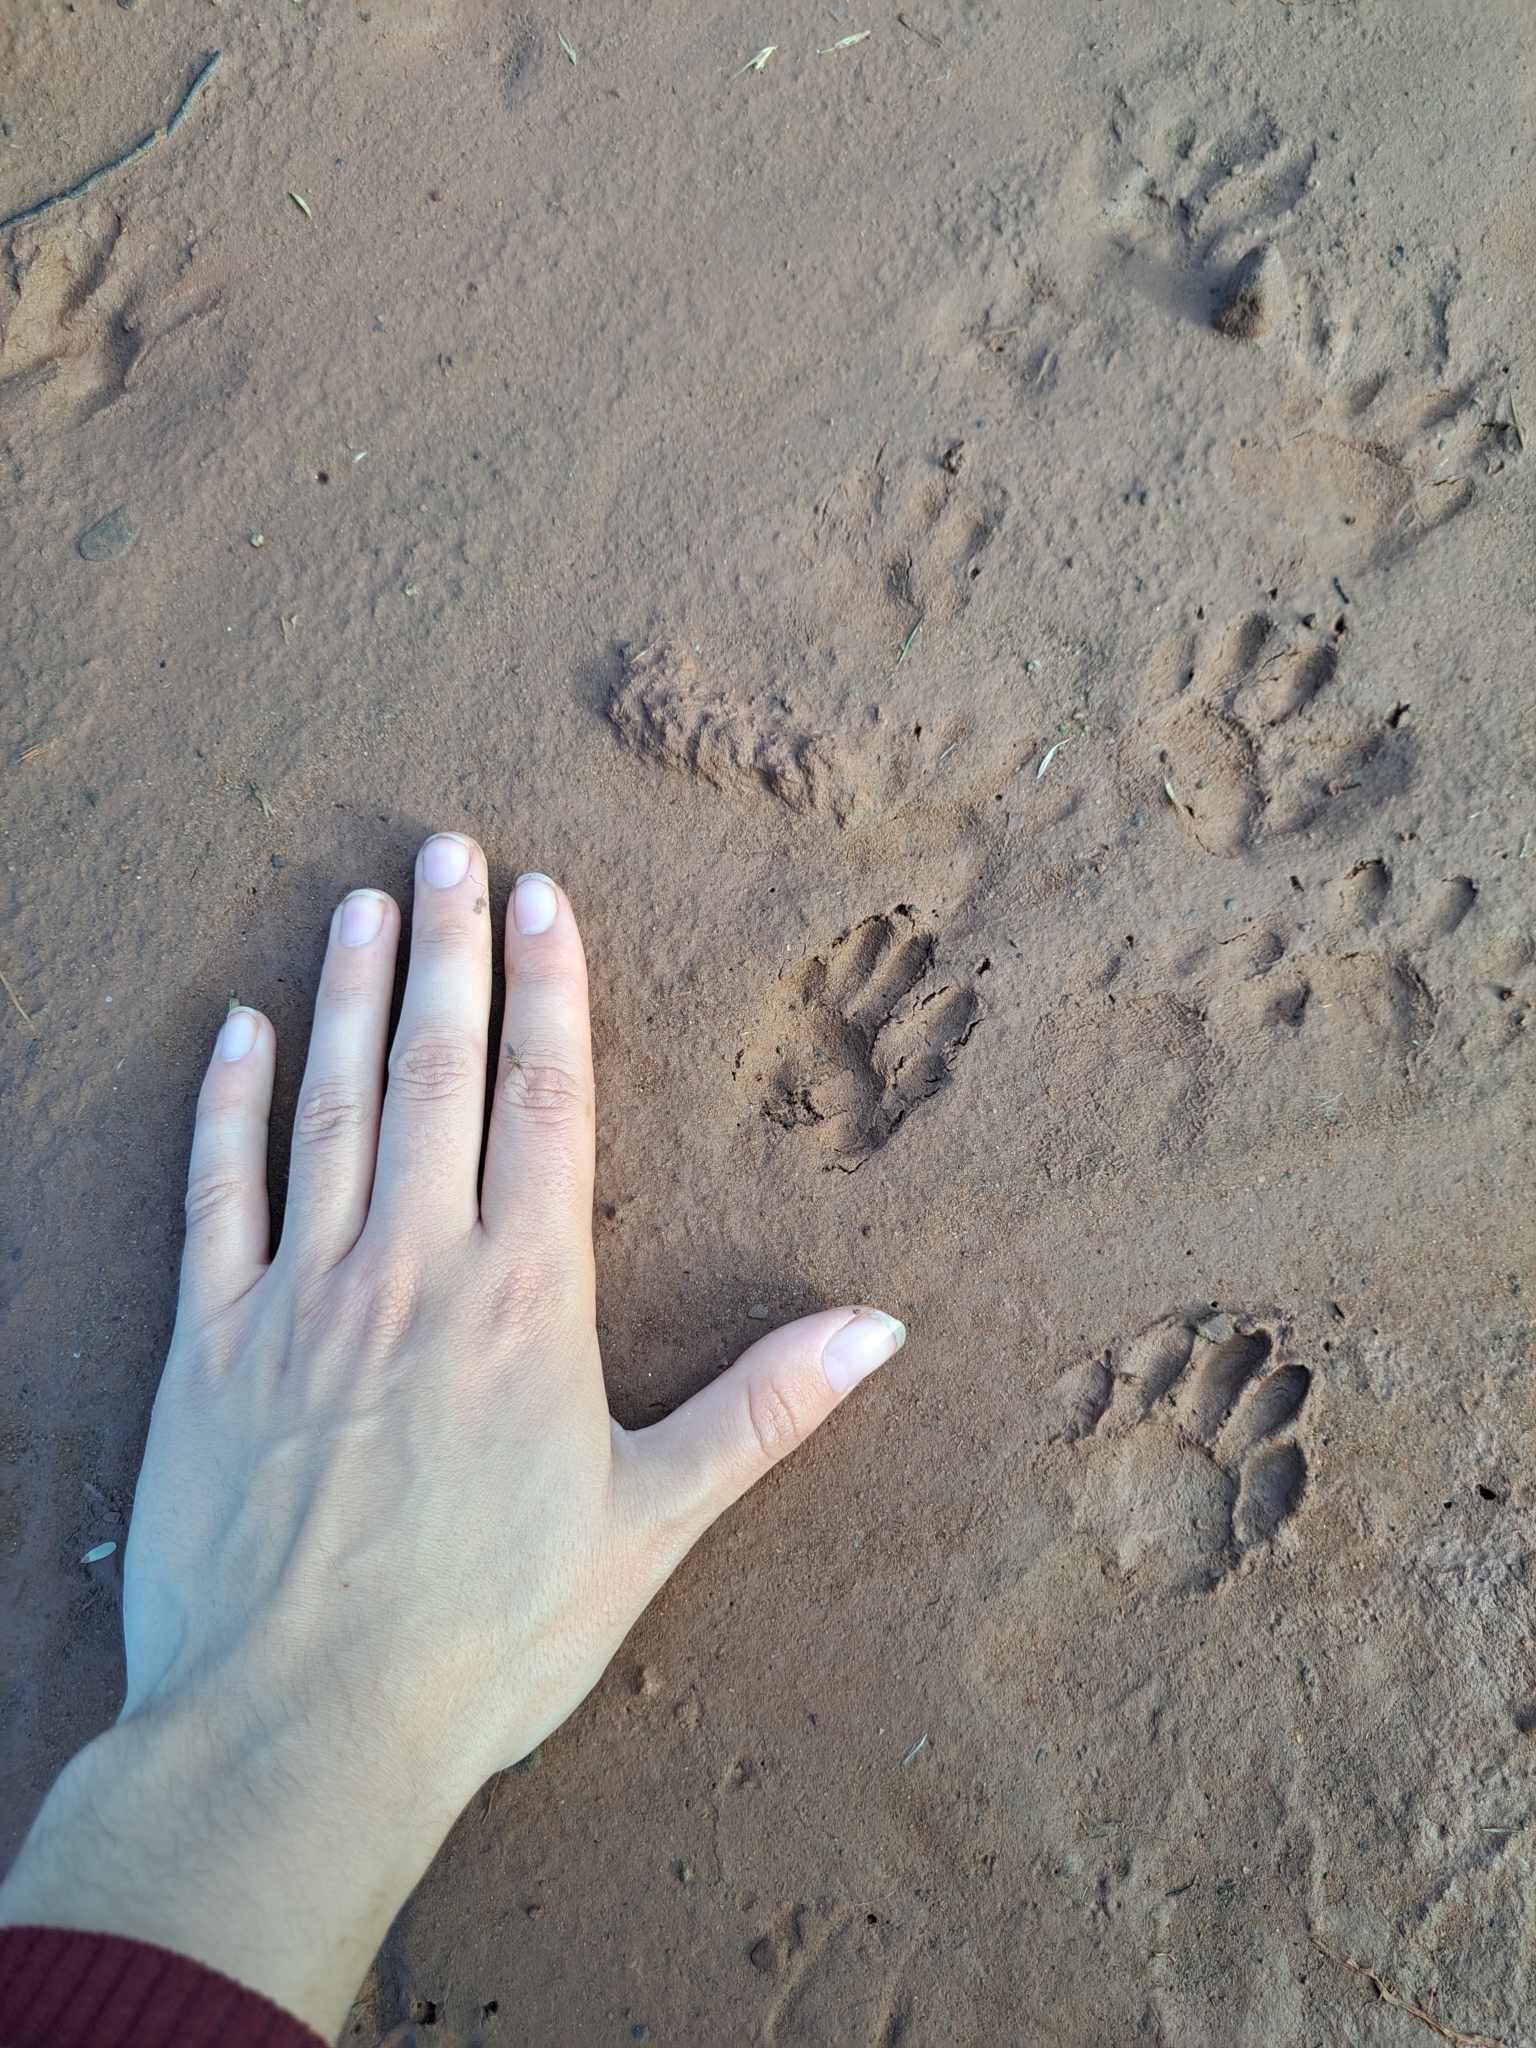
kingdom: Animalia
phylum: Chordata
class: Mammalia
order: Carnivora
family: Procyonidae
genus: Procyon
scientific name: Procyon lotor
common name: Raccoon
